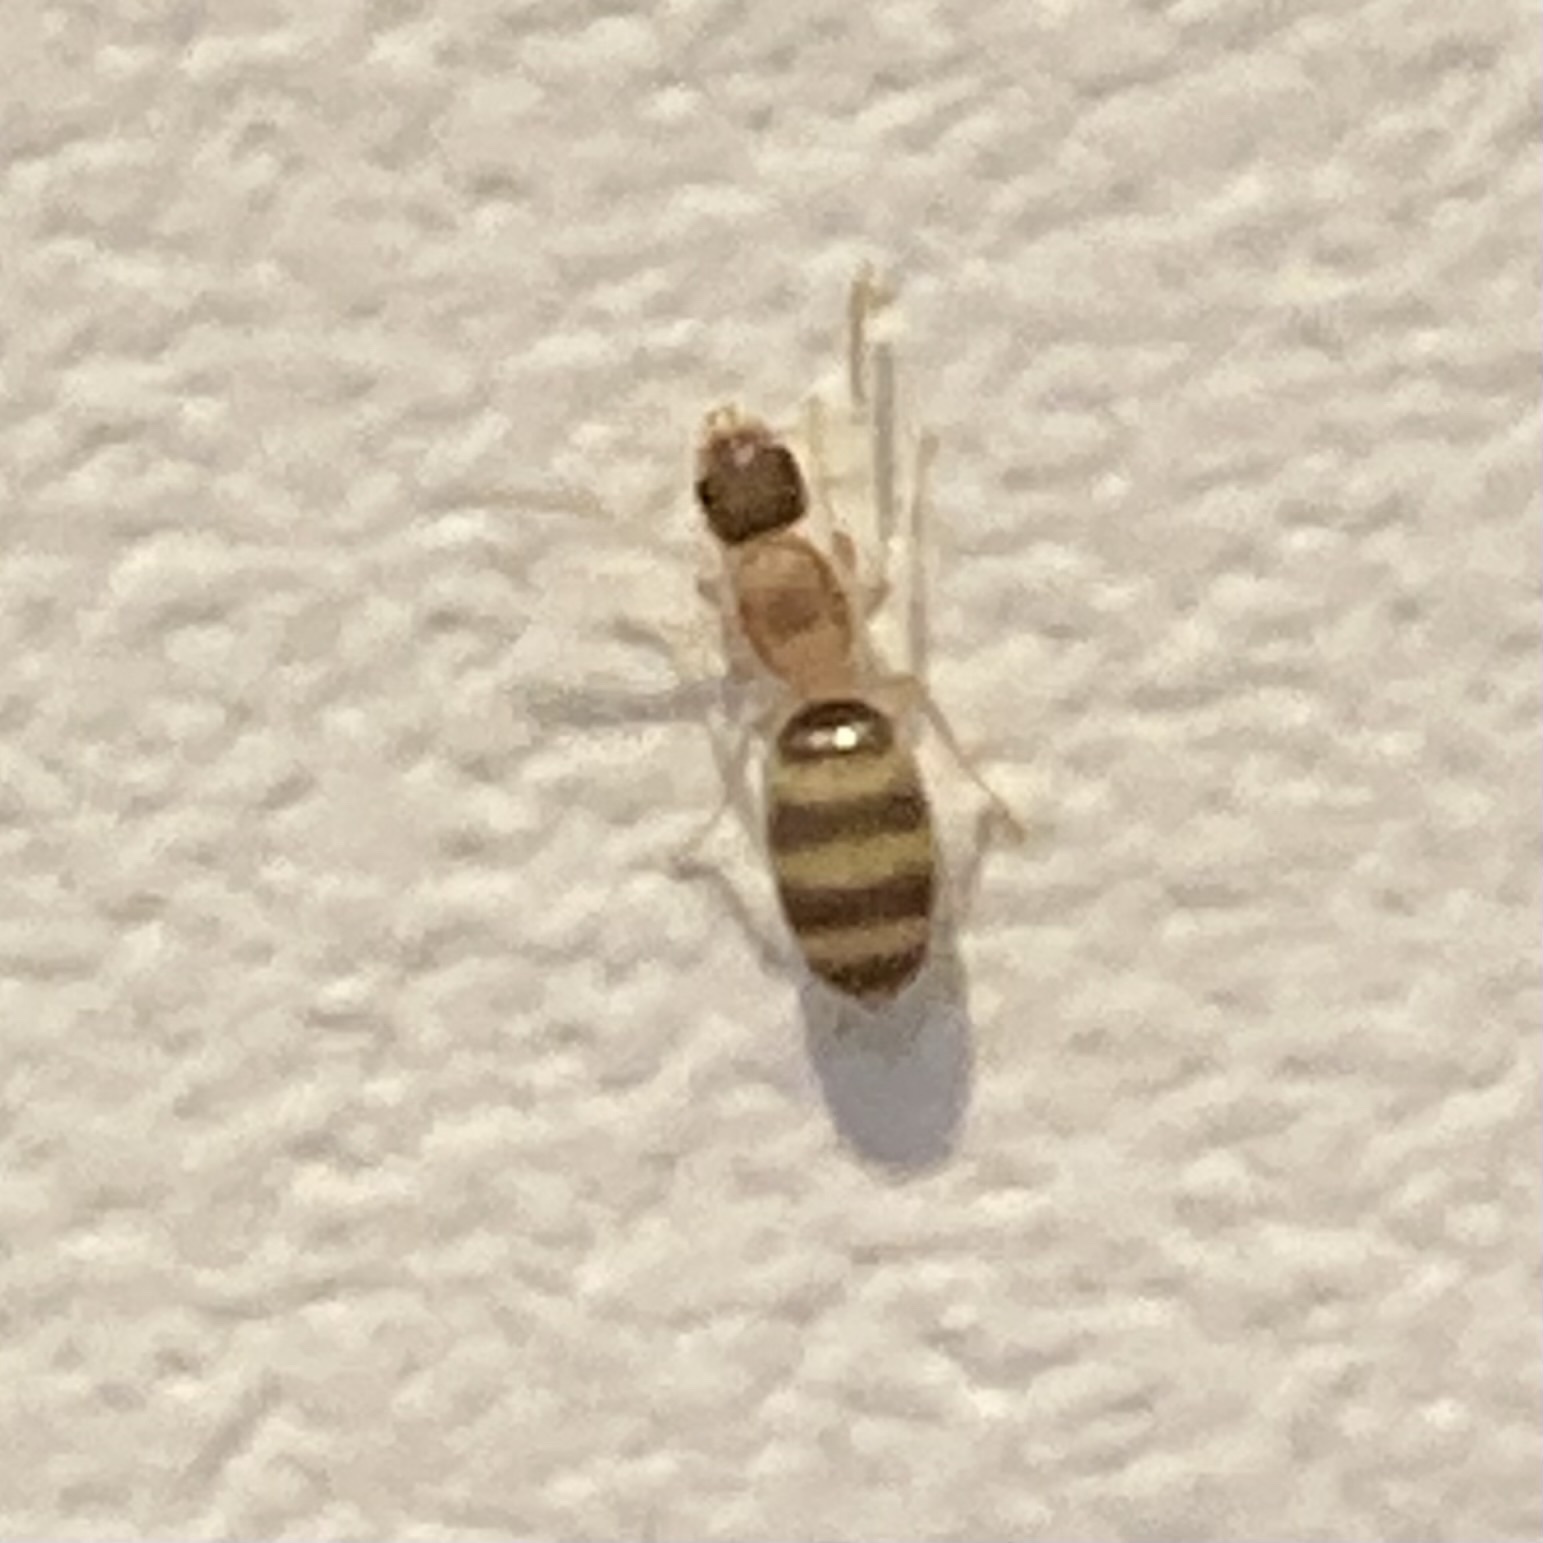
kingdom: Animalia
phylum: Arthropoda
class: Insecta
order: Hymenoptera
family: Formicidae
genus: Tapinoma
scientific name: Tapinoma melanocephalum
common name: Ghost ant
